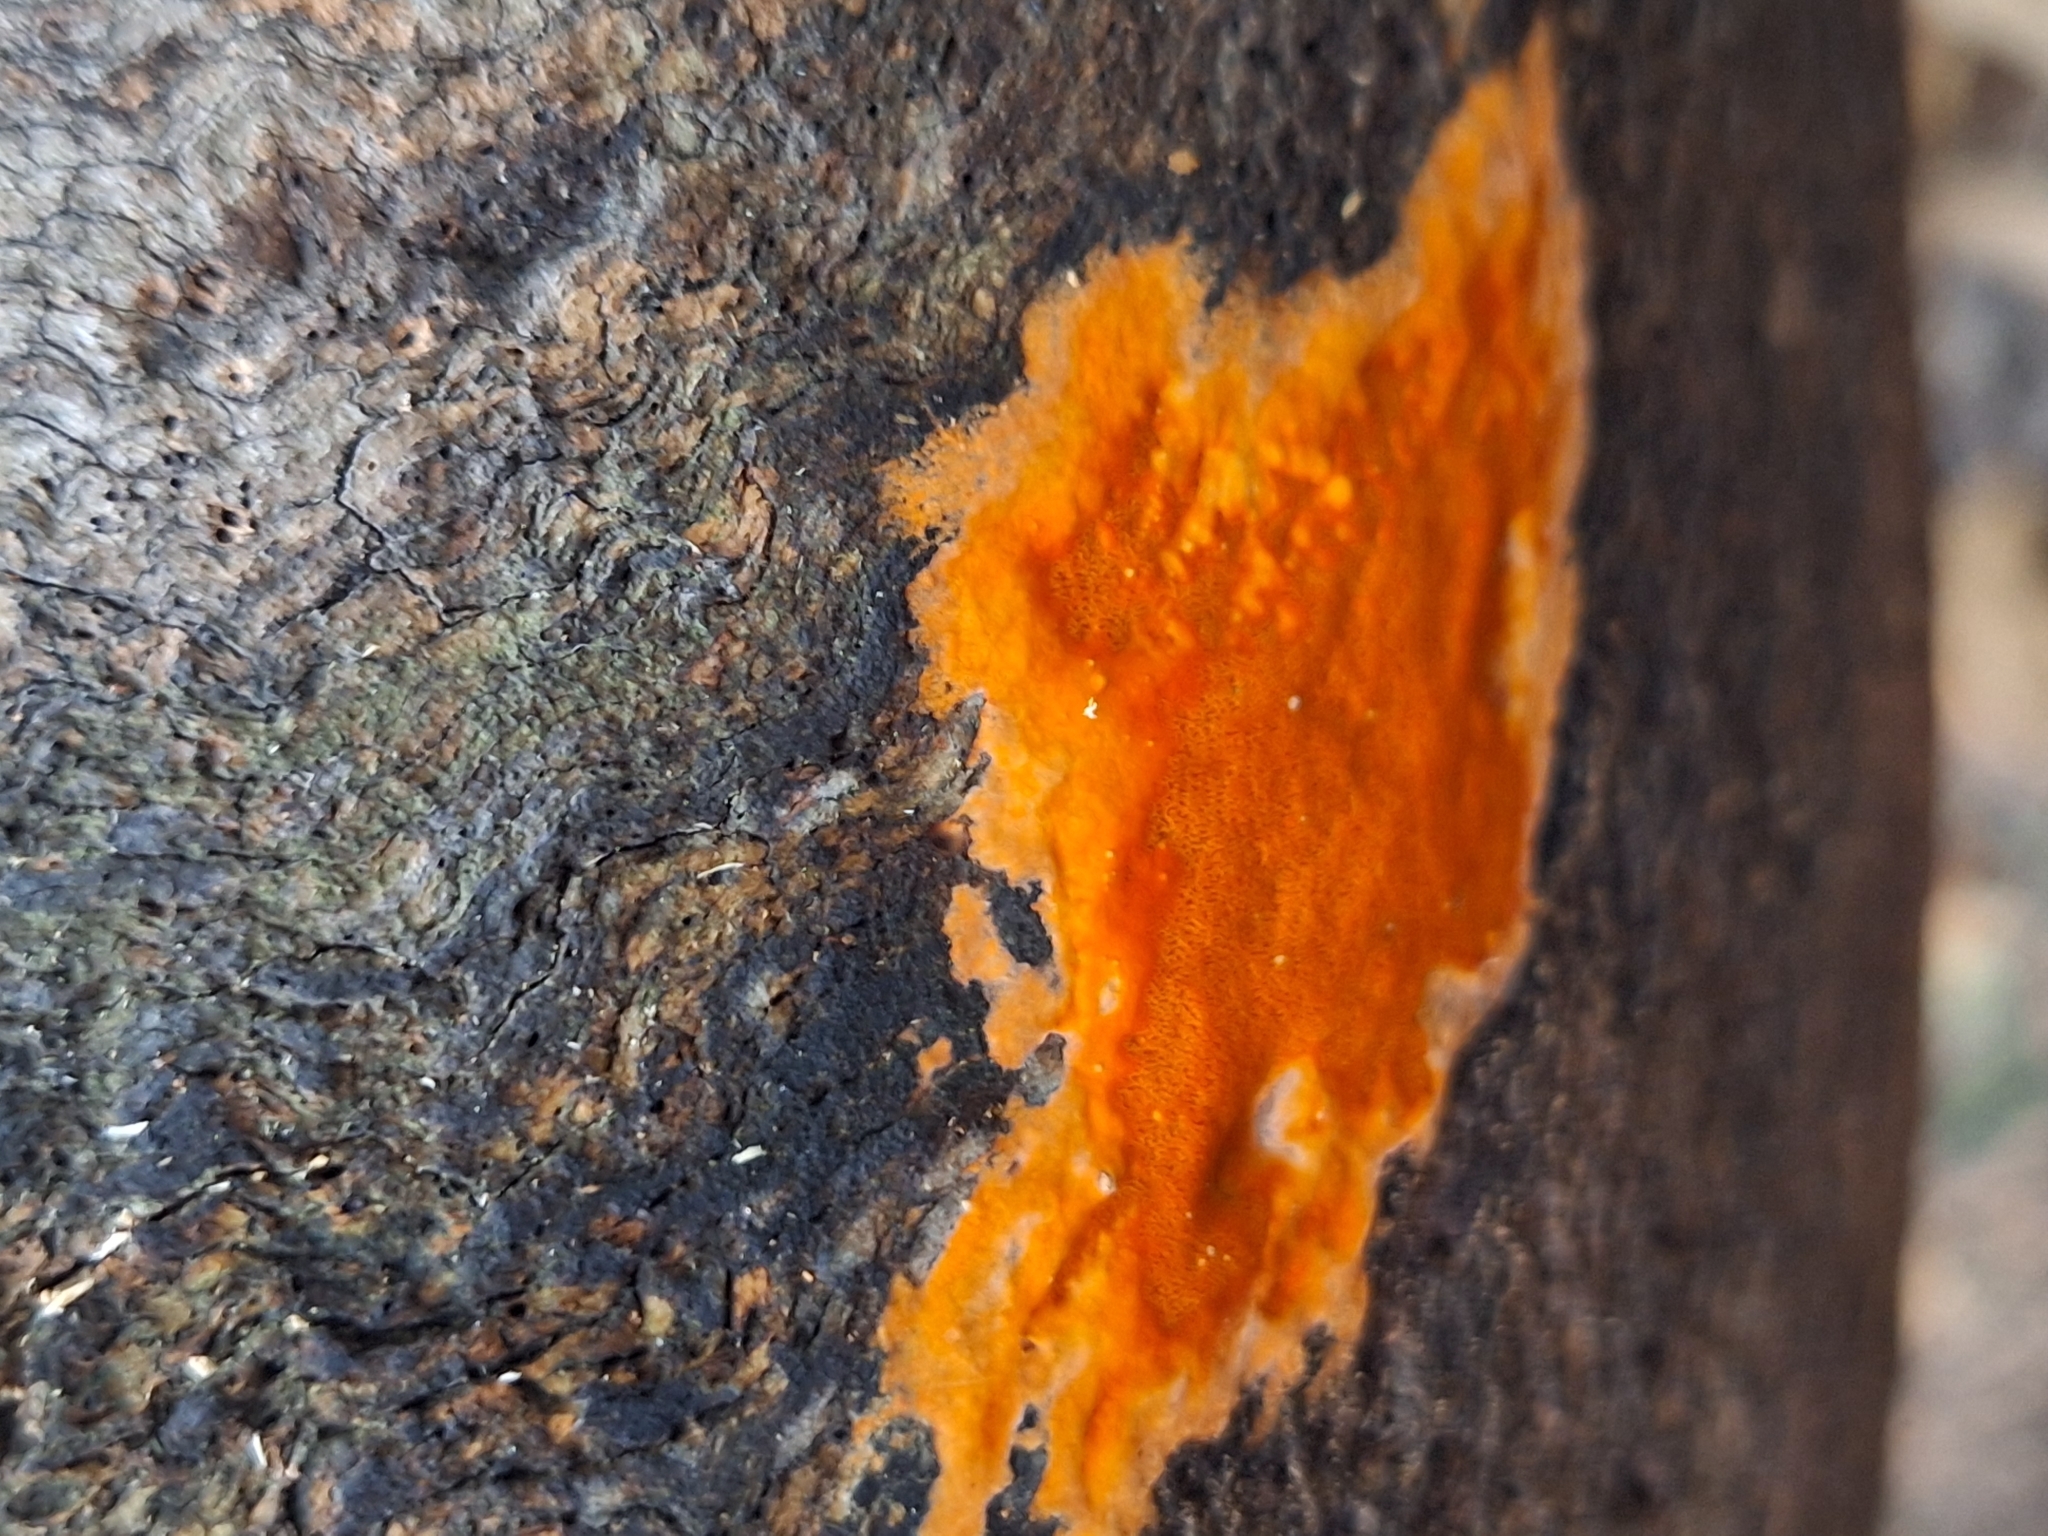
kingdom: Fungi
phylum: Basidiomycota
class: Agaricomycetes
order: Polyporales
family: Polyporaceae
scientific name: Polyporaceae
